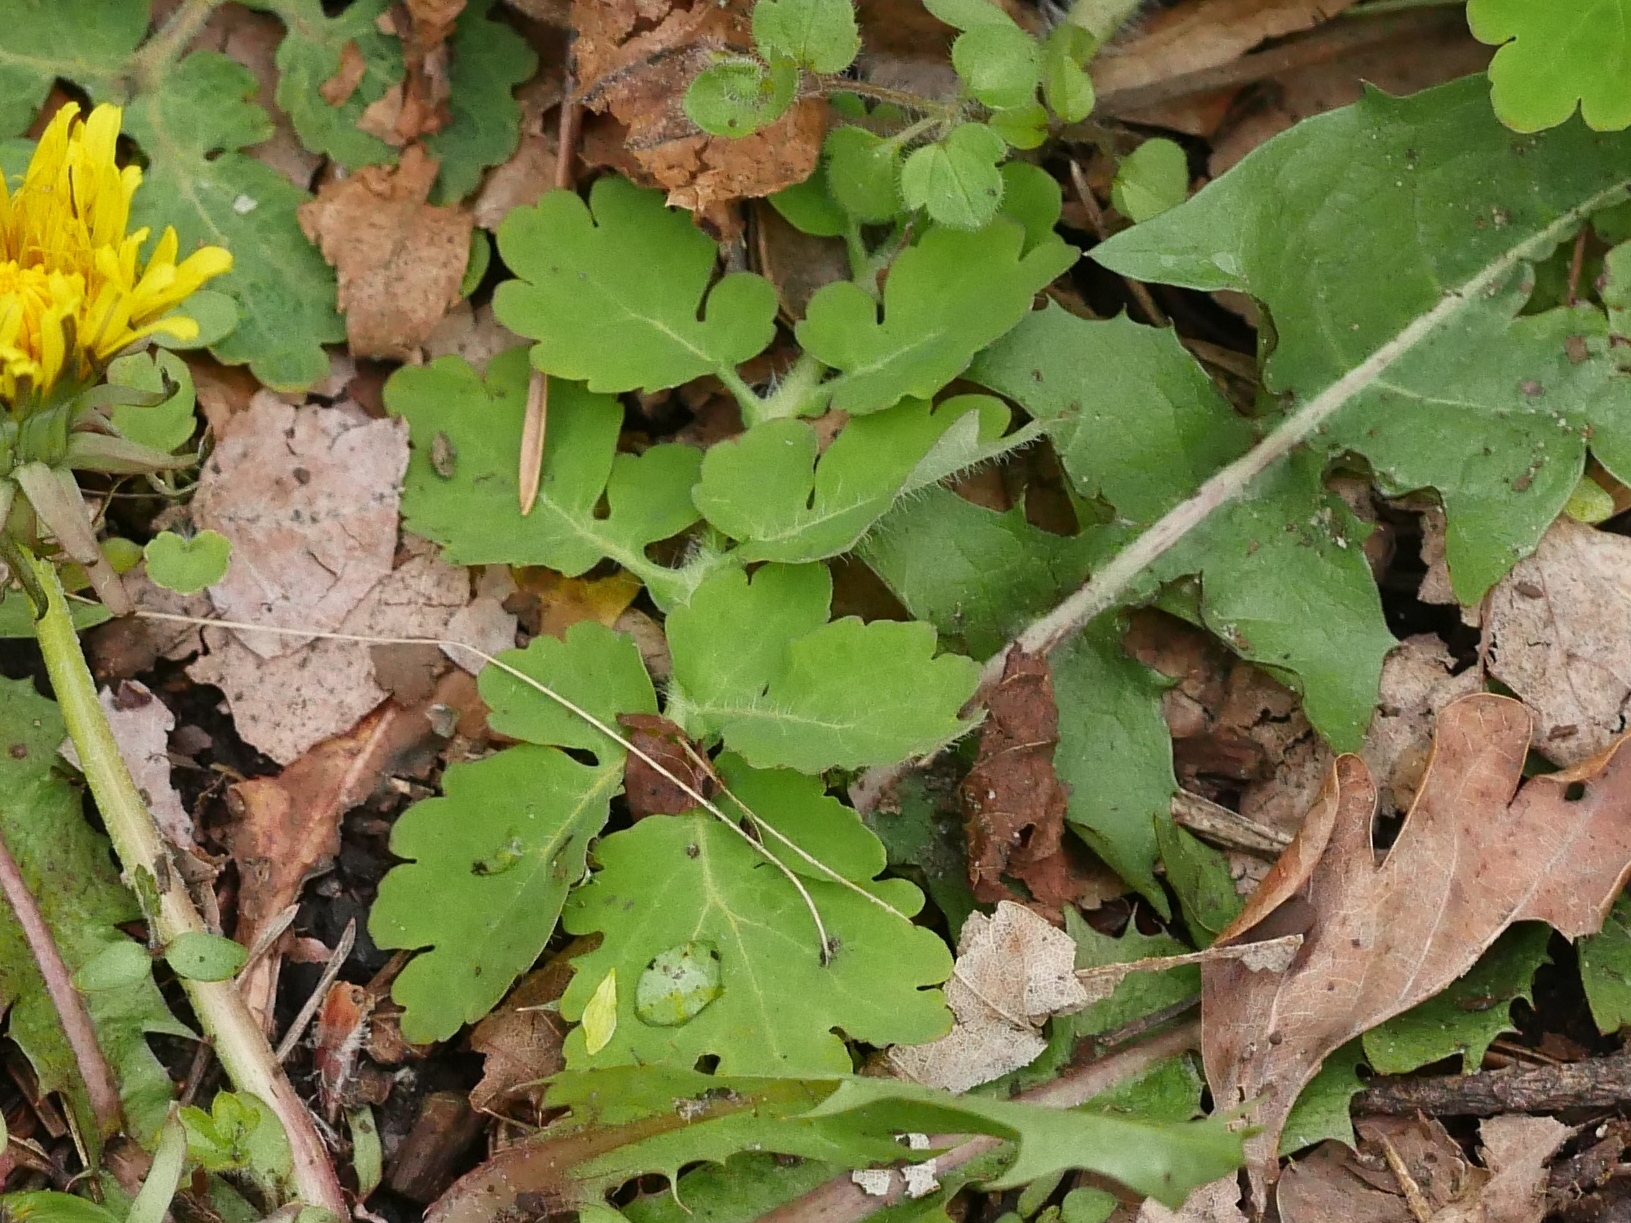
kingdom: Plantae
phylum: Tracheophyta
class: Magnoliopsida
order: Ranunculales
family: Papaveraceae
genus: Chelidonium
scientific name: Chelidonium majus
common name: Greater celandine
